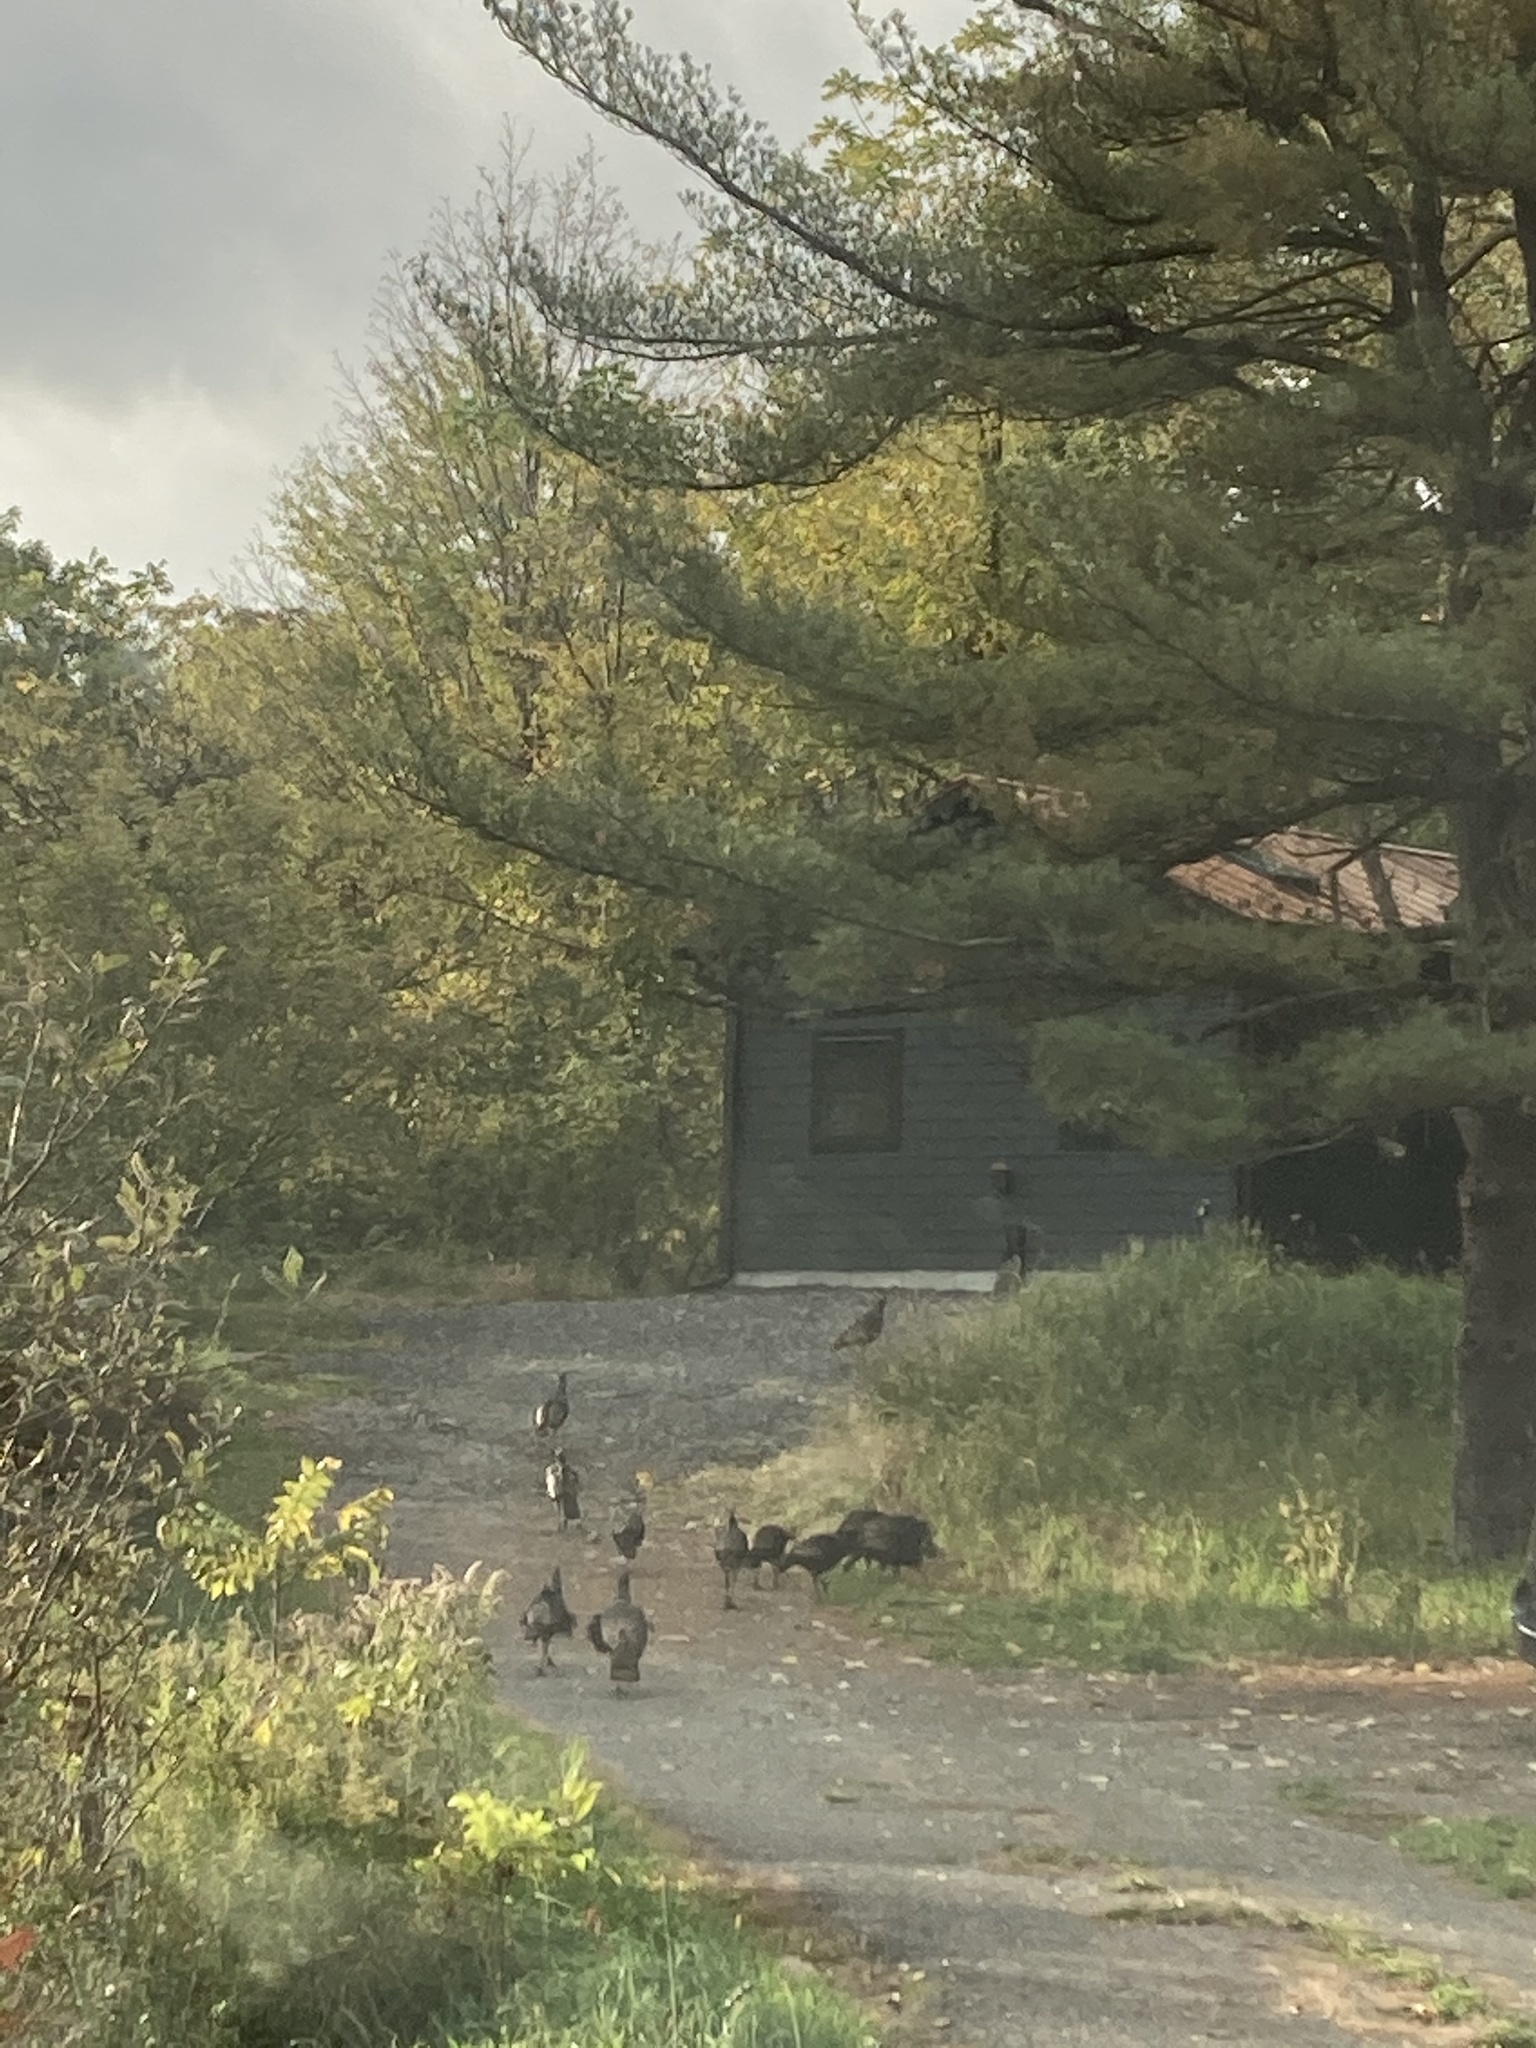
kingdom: Animalia
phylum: Chordata
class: Aves
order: Galliformes
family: Phasianidae
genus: Meleagris
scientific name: Meleagris gallopavo
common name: Wild turkey
